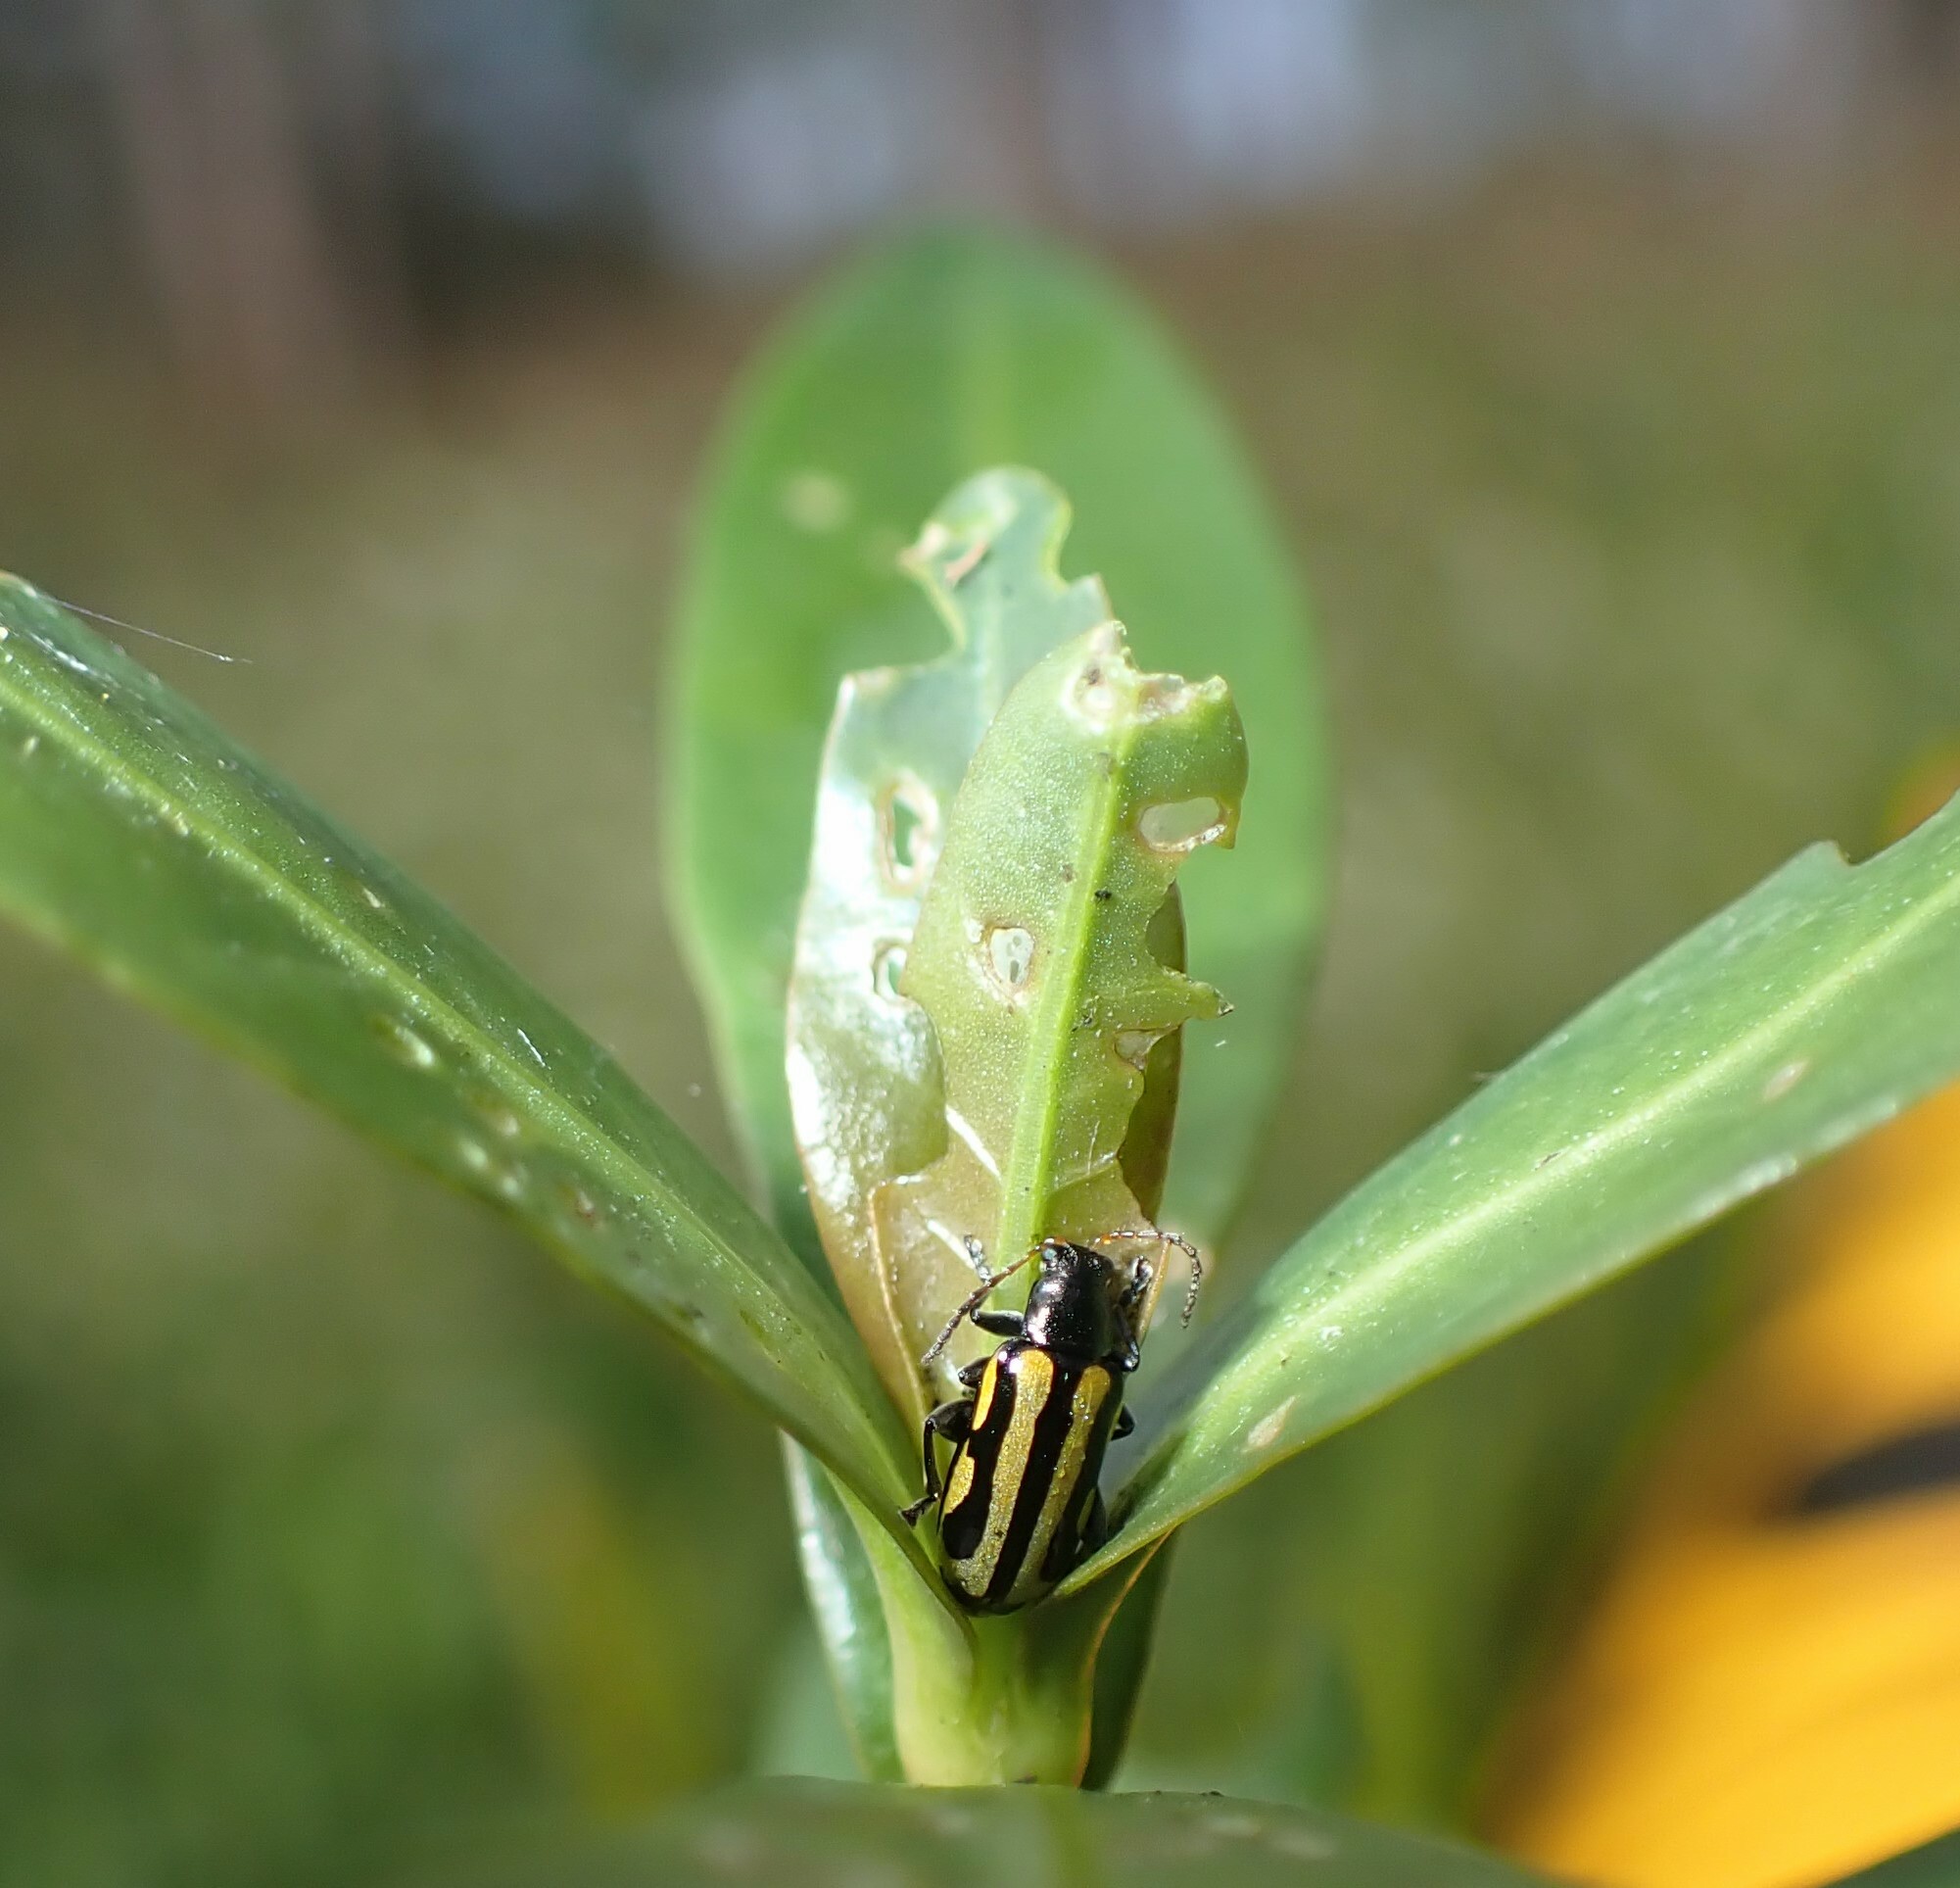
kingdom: Animalia
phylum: Arthropoda
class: Insecta
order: Coleoptera
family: Chrysomelidae
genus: Agasicles
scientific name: Agasicles hygrophila
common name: Alligatorweed flea beetle
